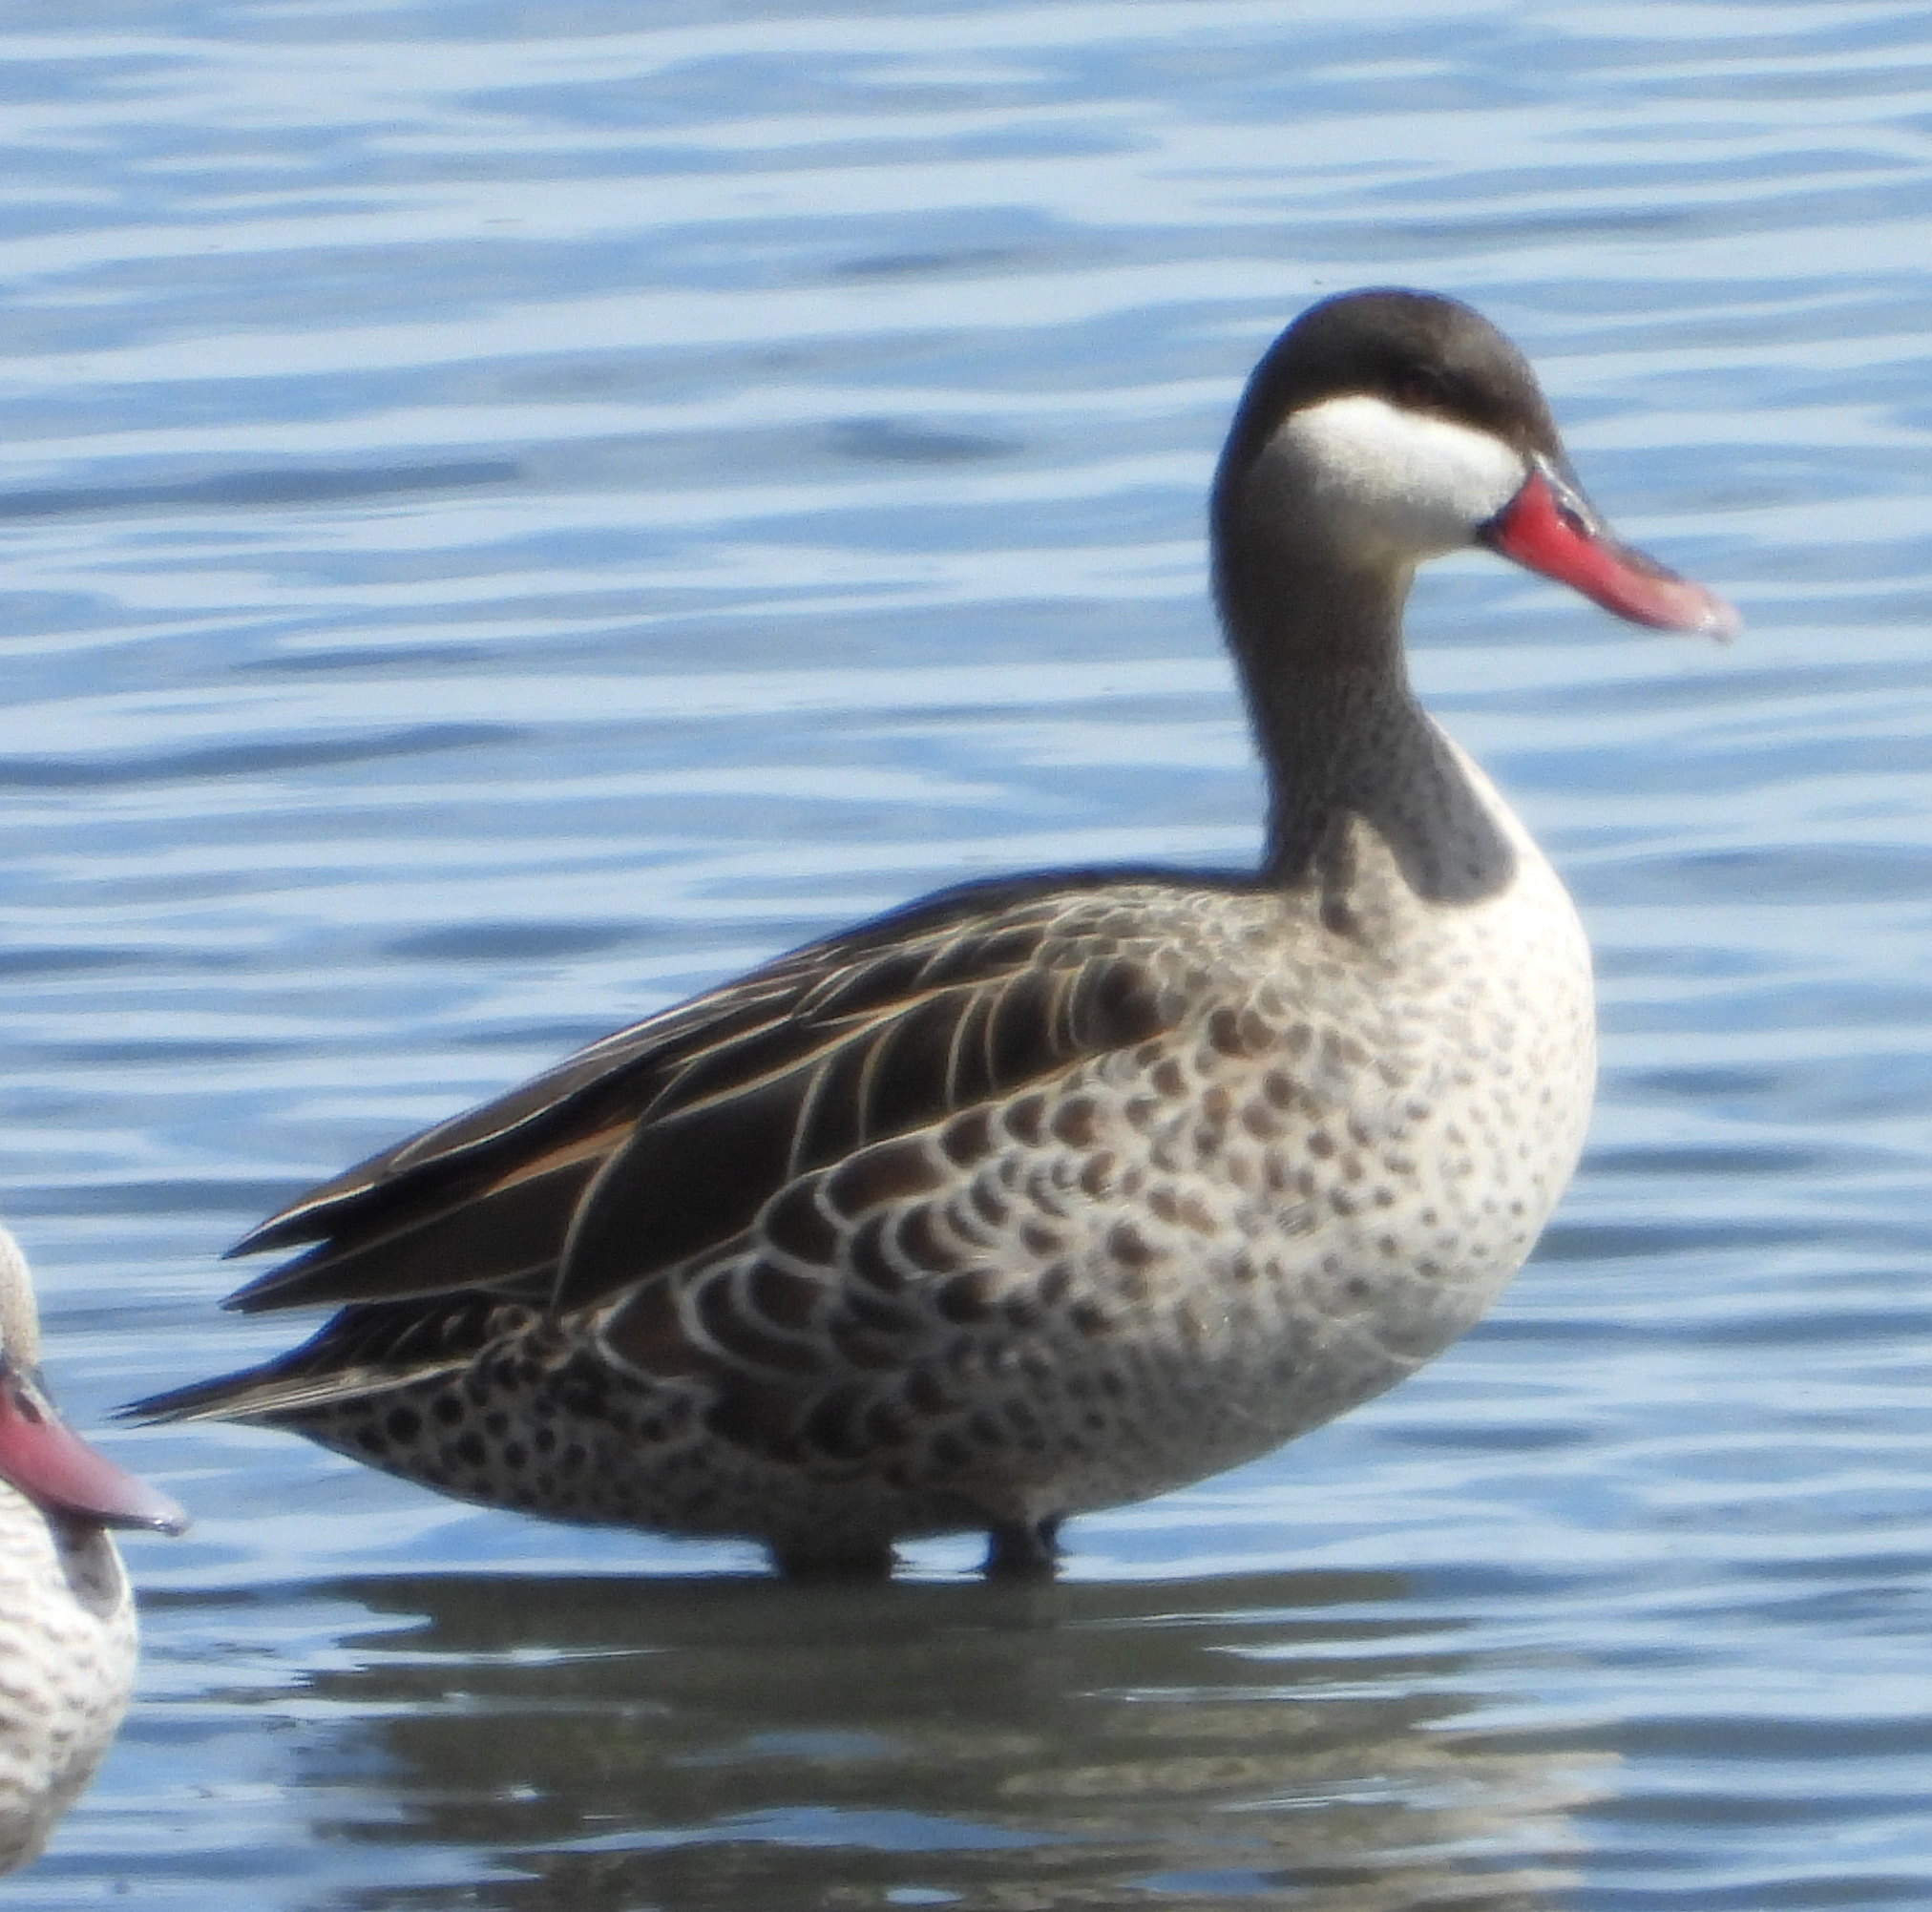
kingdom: Animalia
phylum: Chordata
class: Aves
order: Anseriformes
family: Anatidae
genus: Anas
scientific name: Anas erythrorhyncha
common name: Red-billed teal
